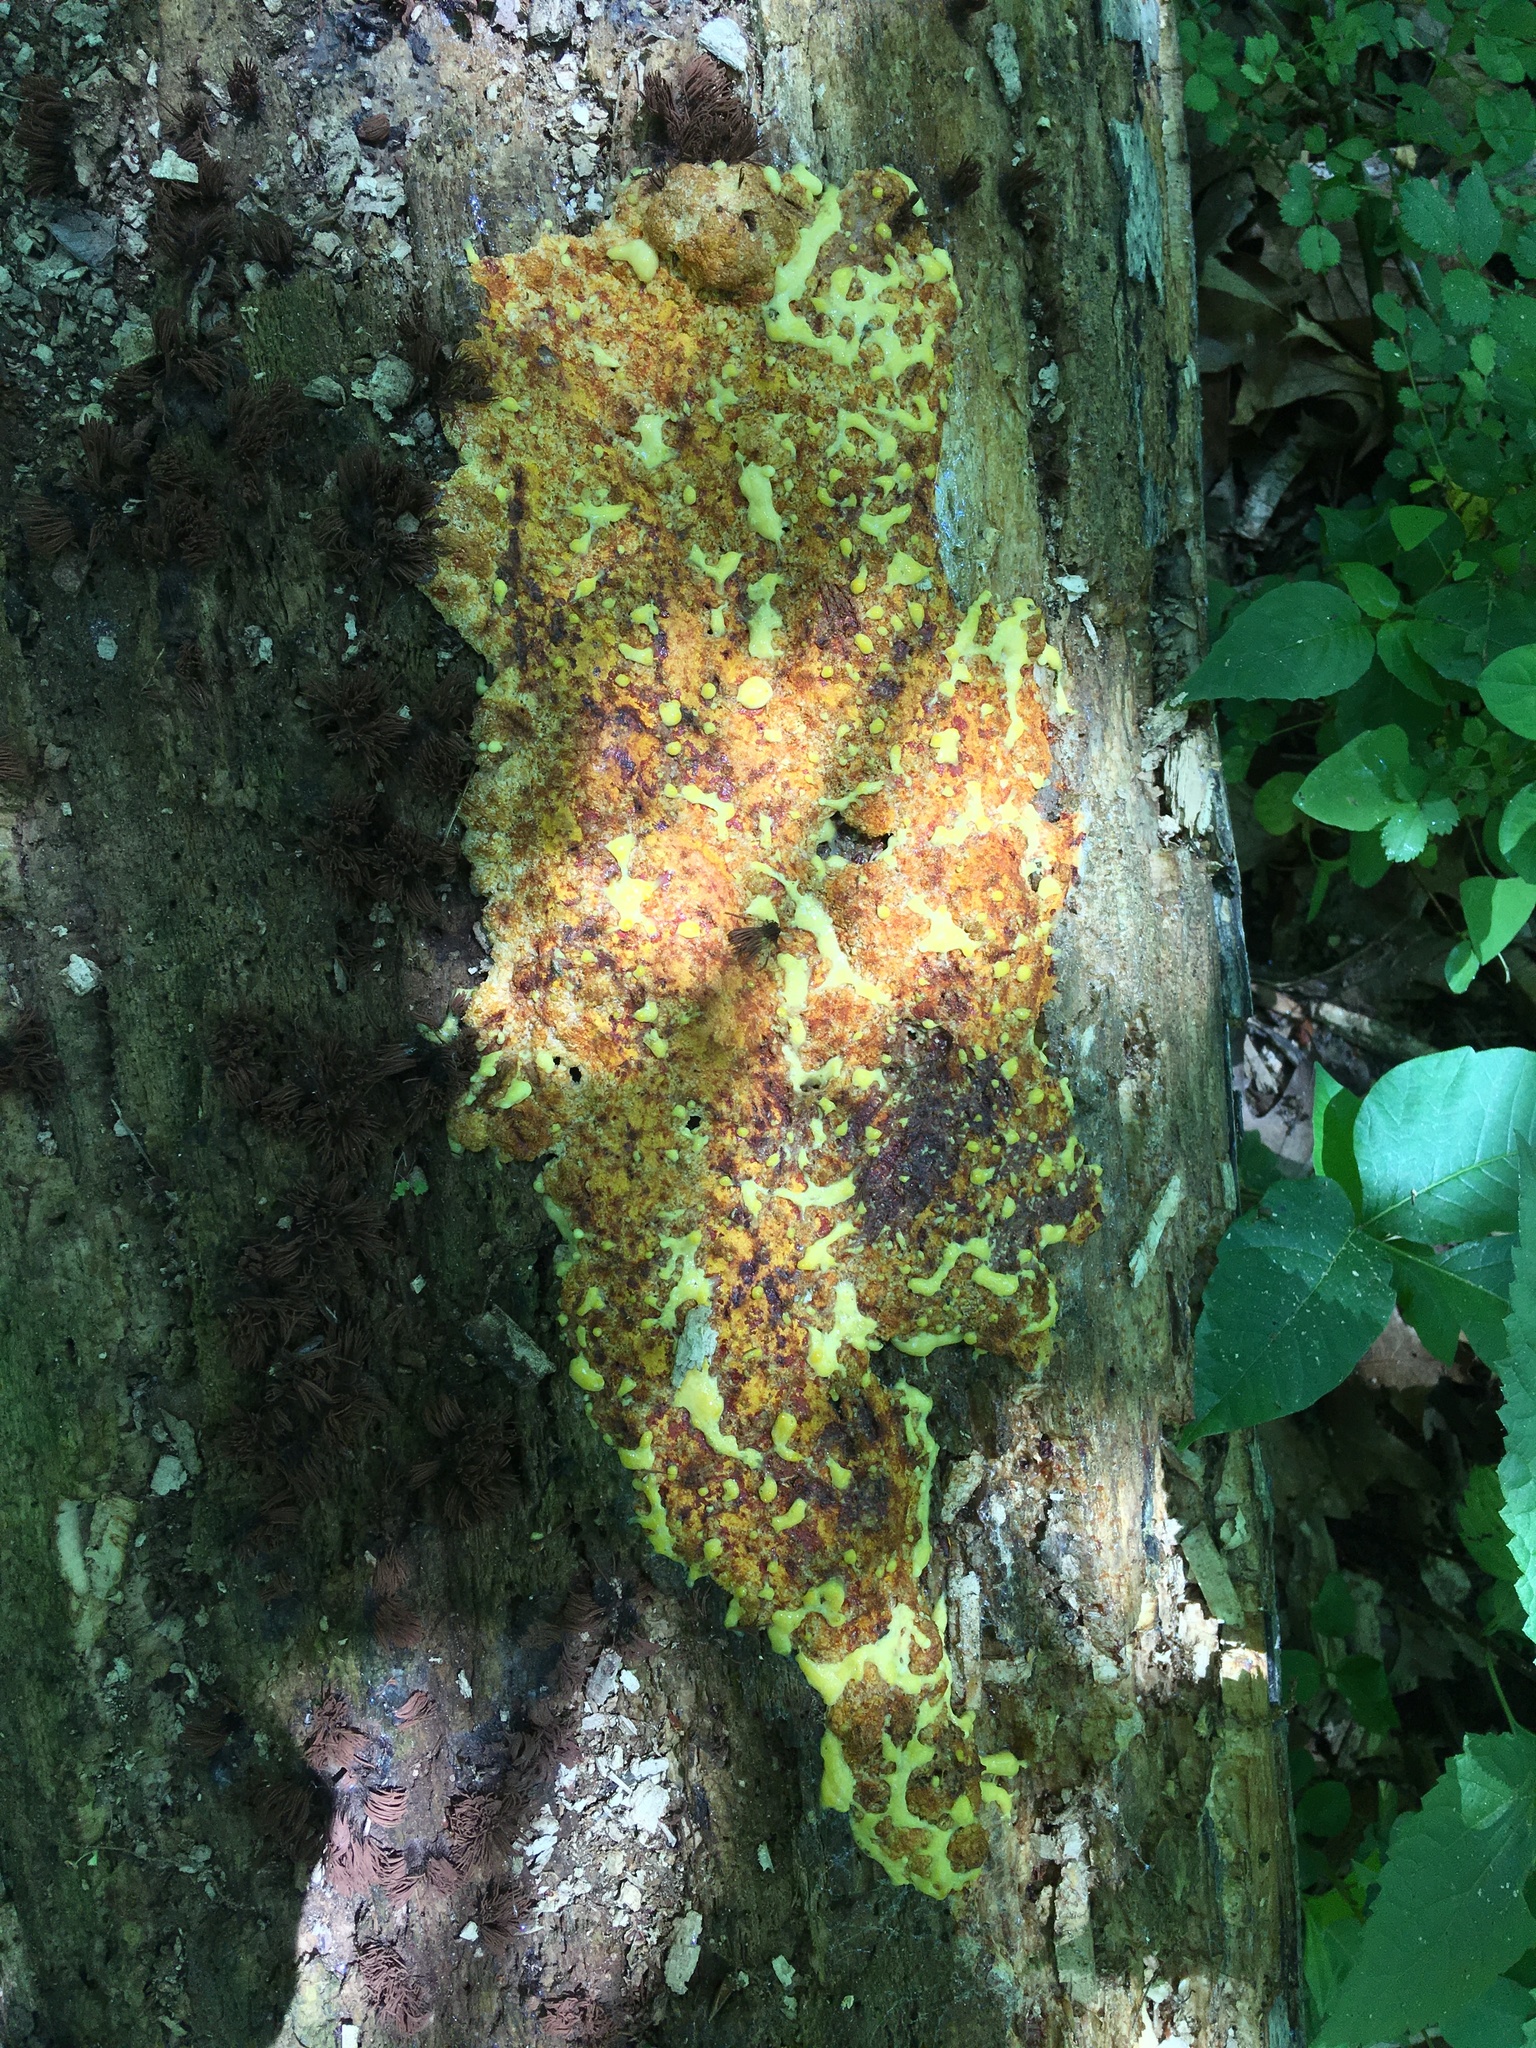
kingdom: Protozoa
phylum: Mycetozoa
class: Myxomycetes
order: Physarales
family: Physaraceae
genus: Fuligo
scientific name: Fuligo septica
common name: Dog vomit slime mold
